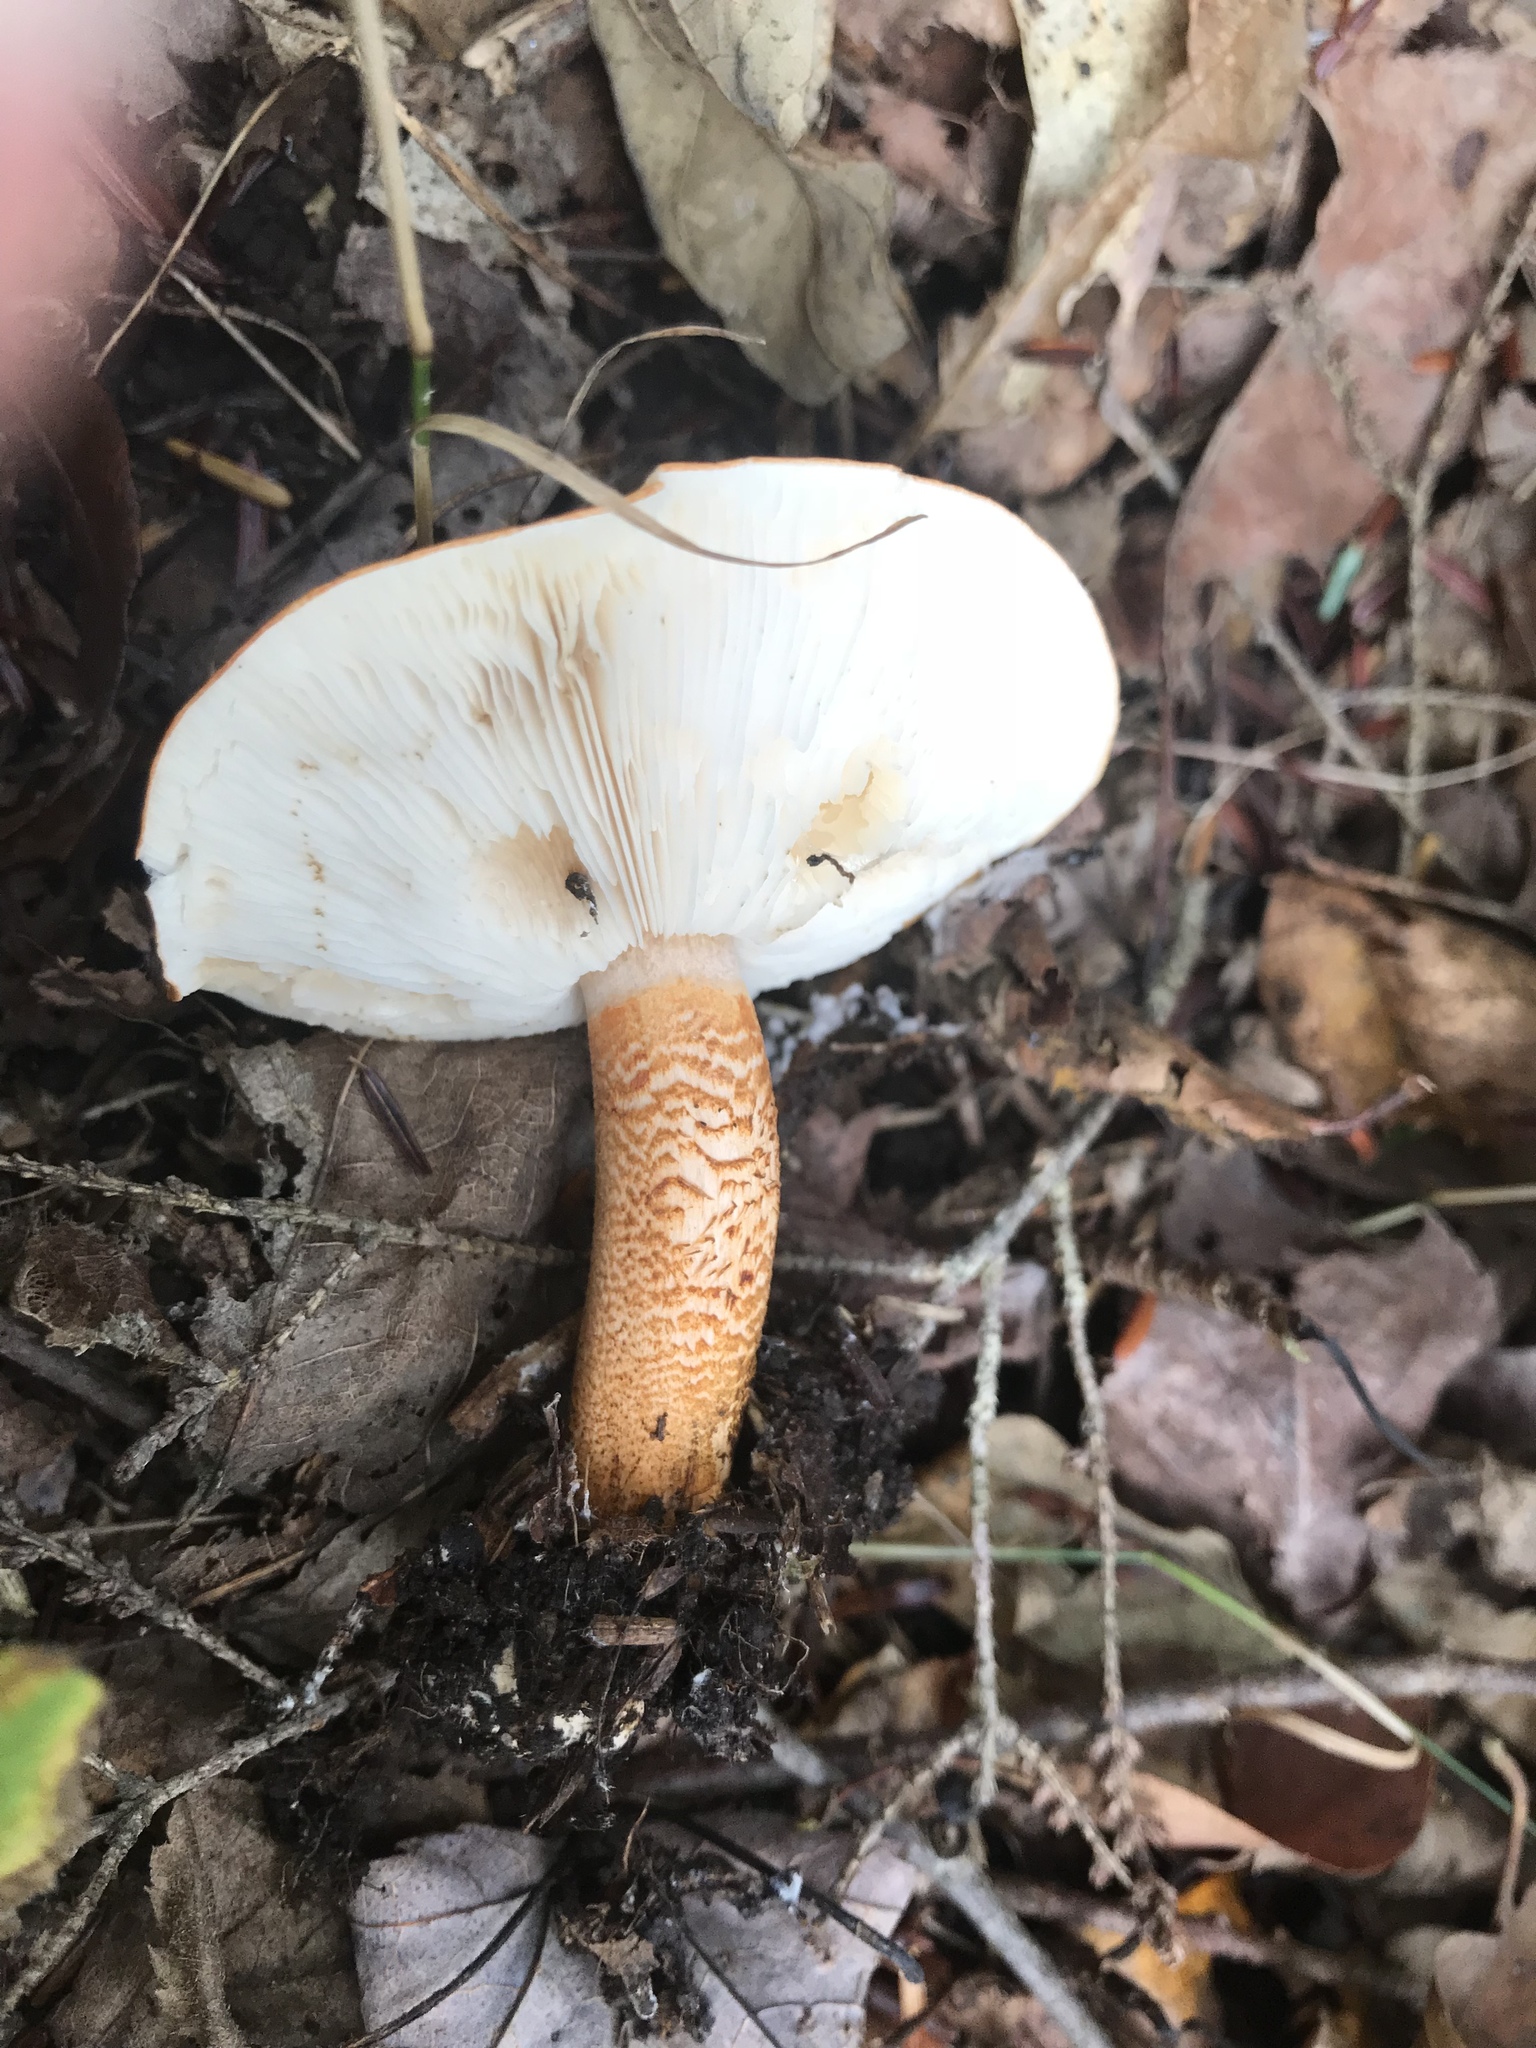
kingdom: Fungi
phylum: Basidiomycota
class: Agaricomycetes
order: Agaricales
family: Tricholomataceae
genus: Tricholoma
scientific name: Tricholoma aurantium
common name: Orange knight
